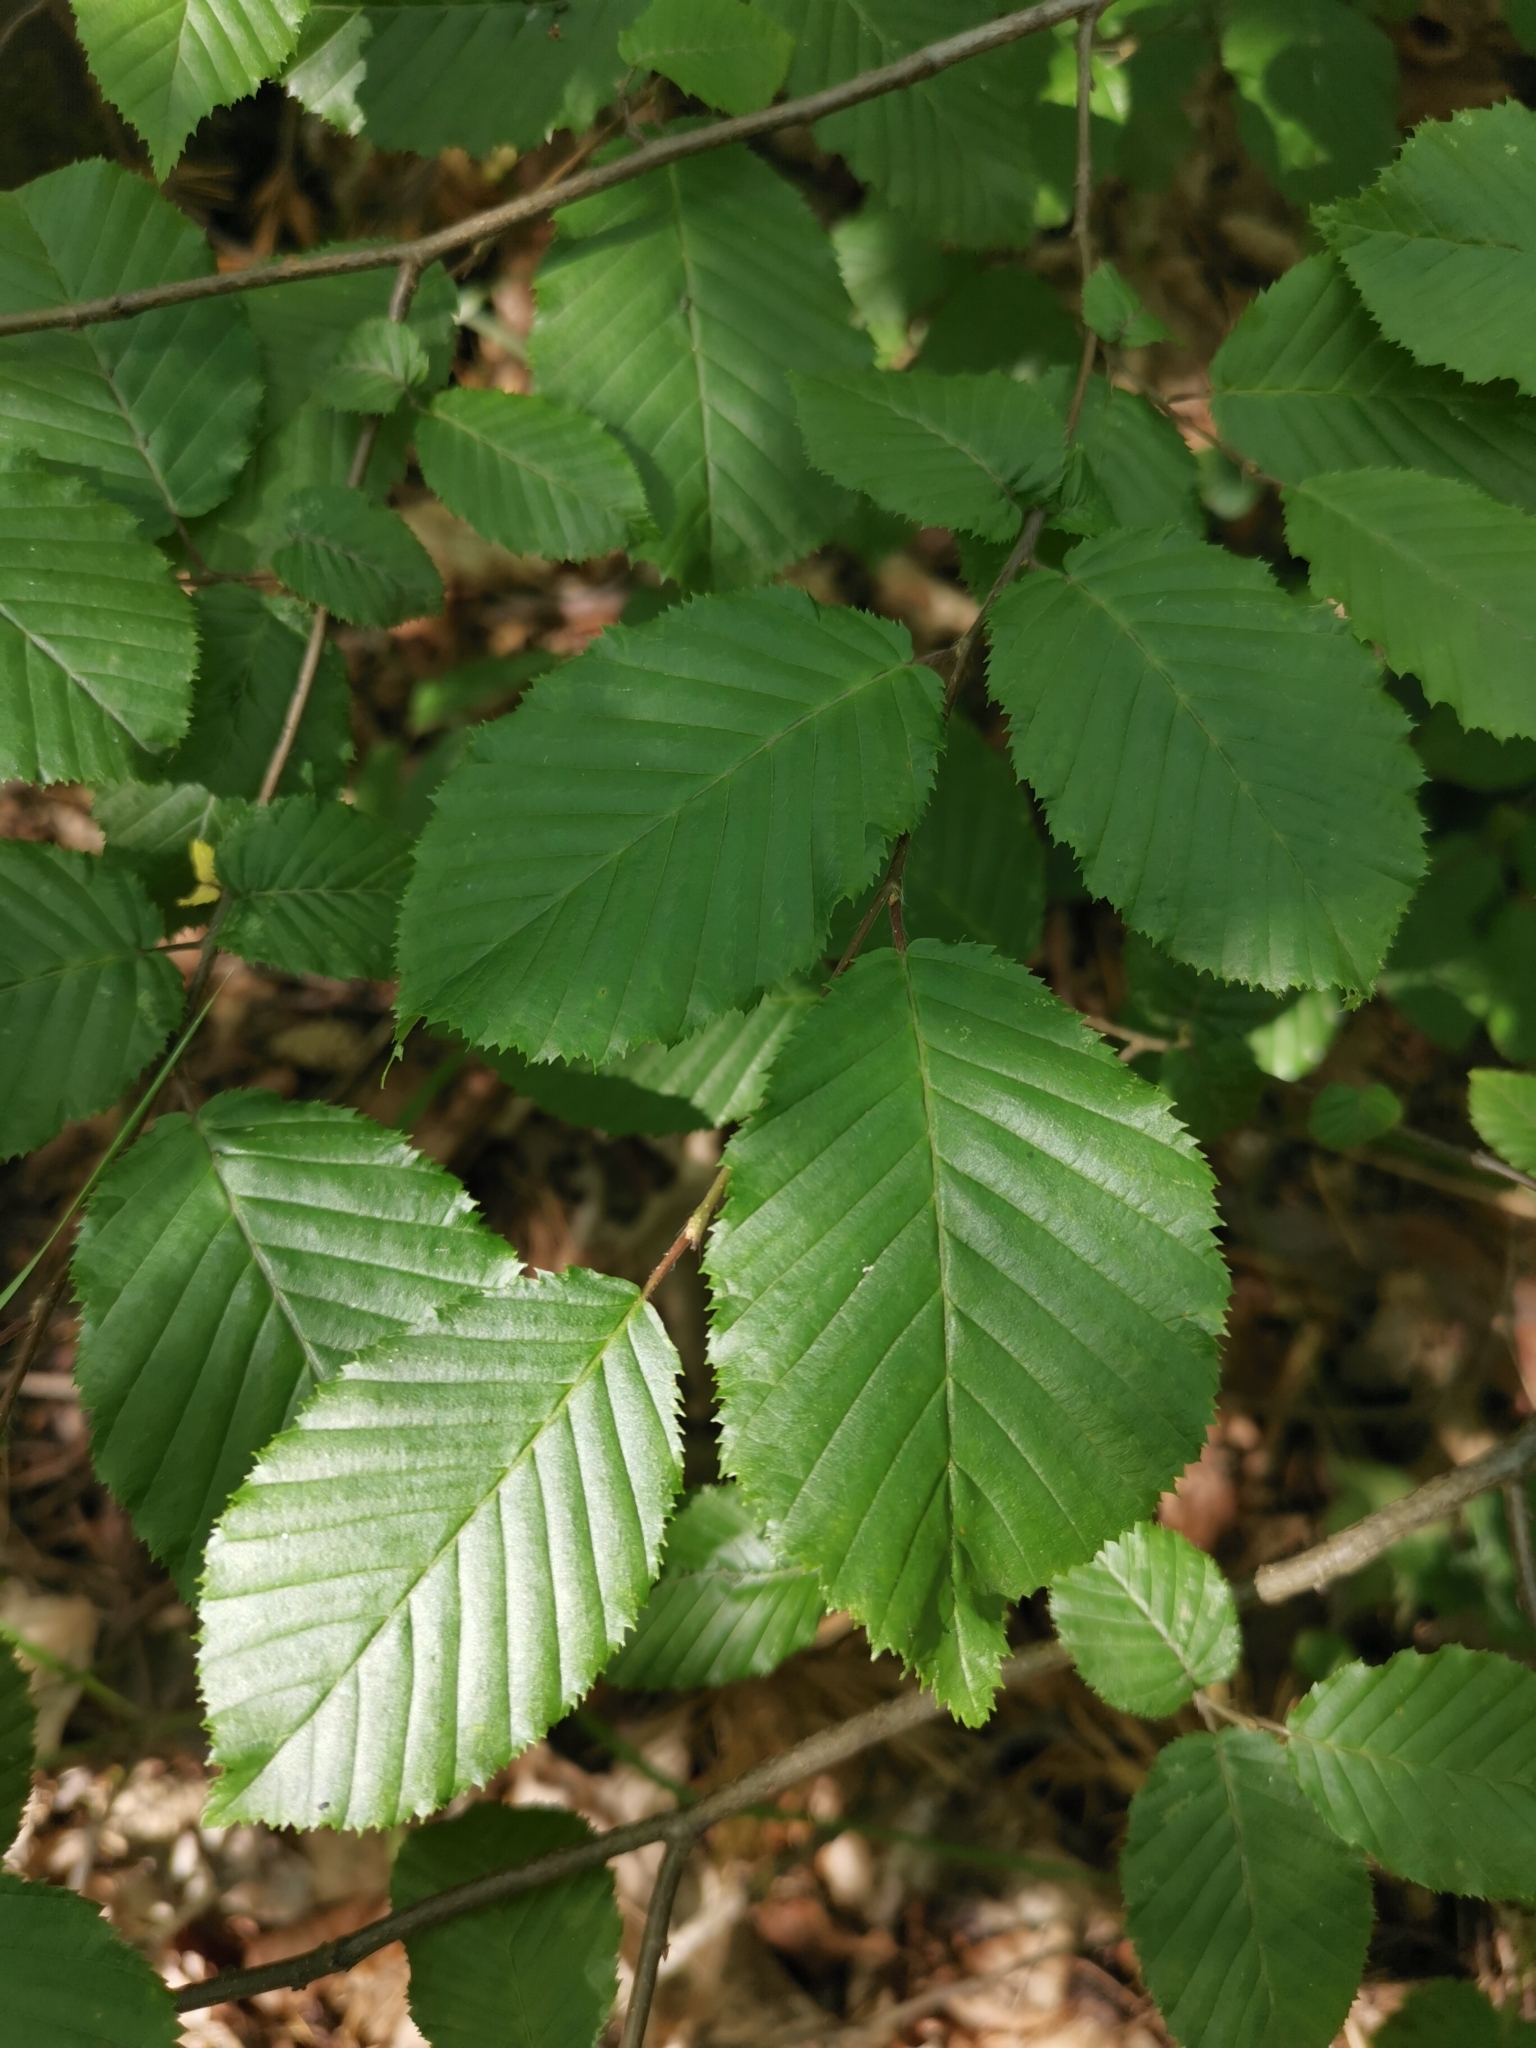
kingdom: Plantae
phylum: Tracheophyta
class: Magnoliopsida
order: Fagales
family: Betulaceae
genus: Carpinus
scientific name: Carpinus betulus
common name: Hornbeam
